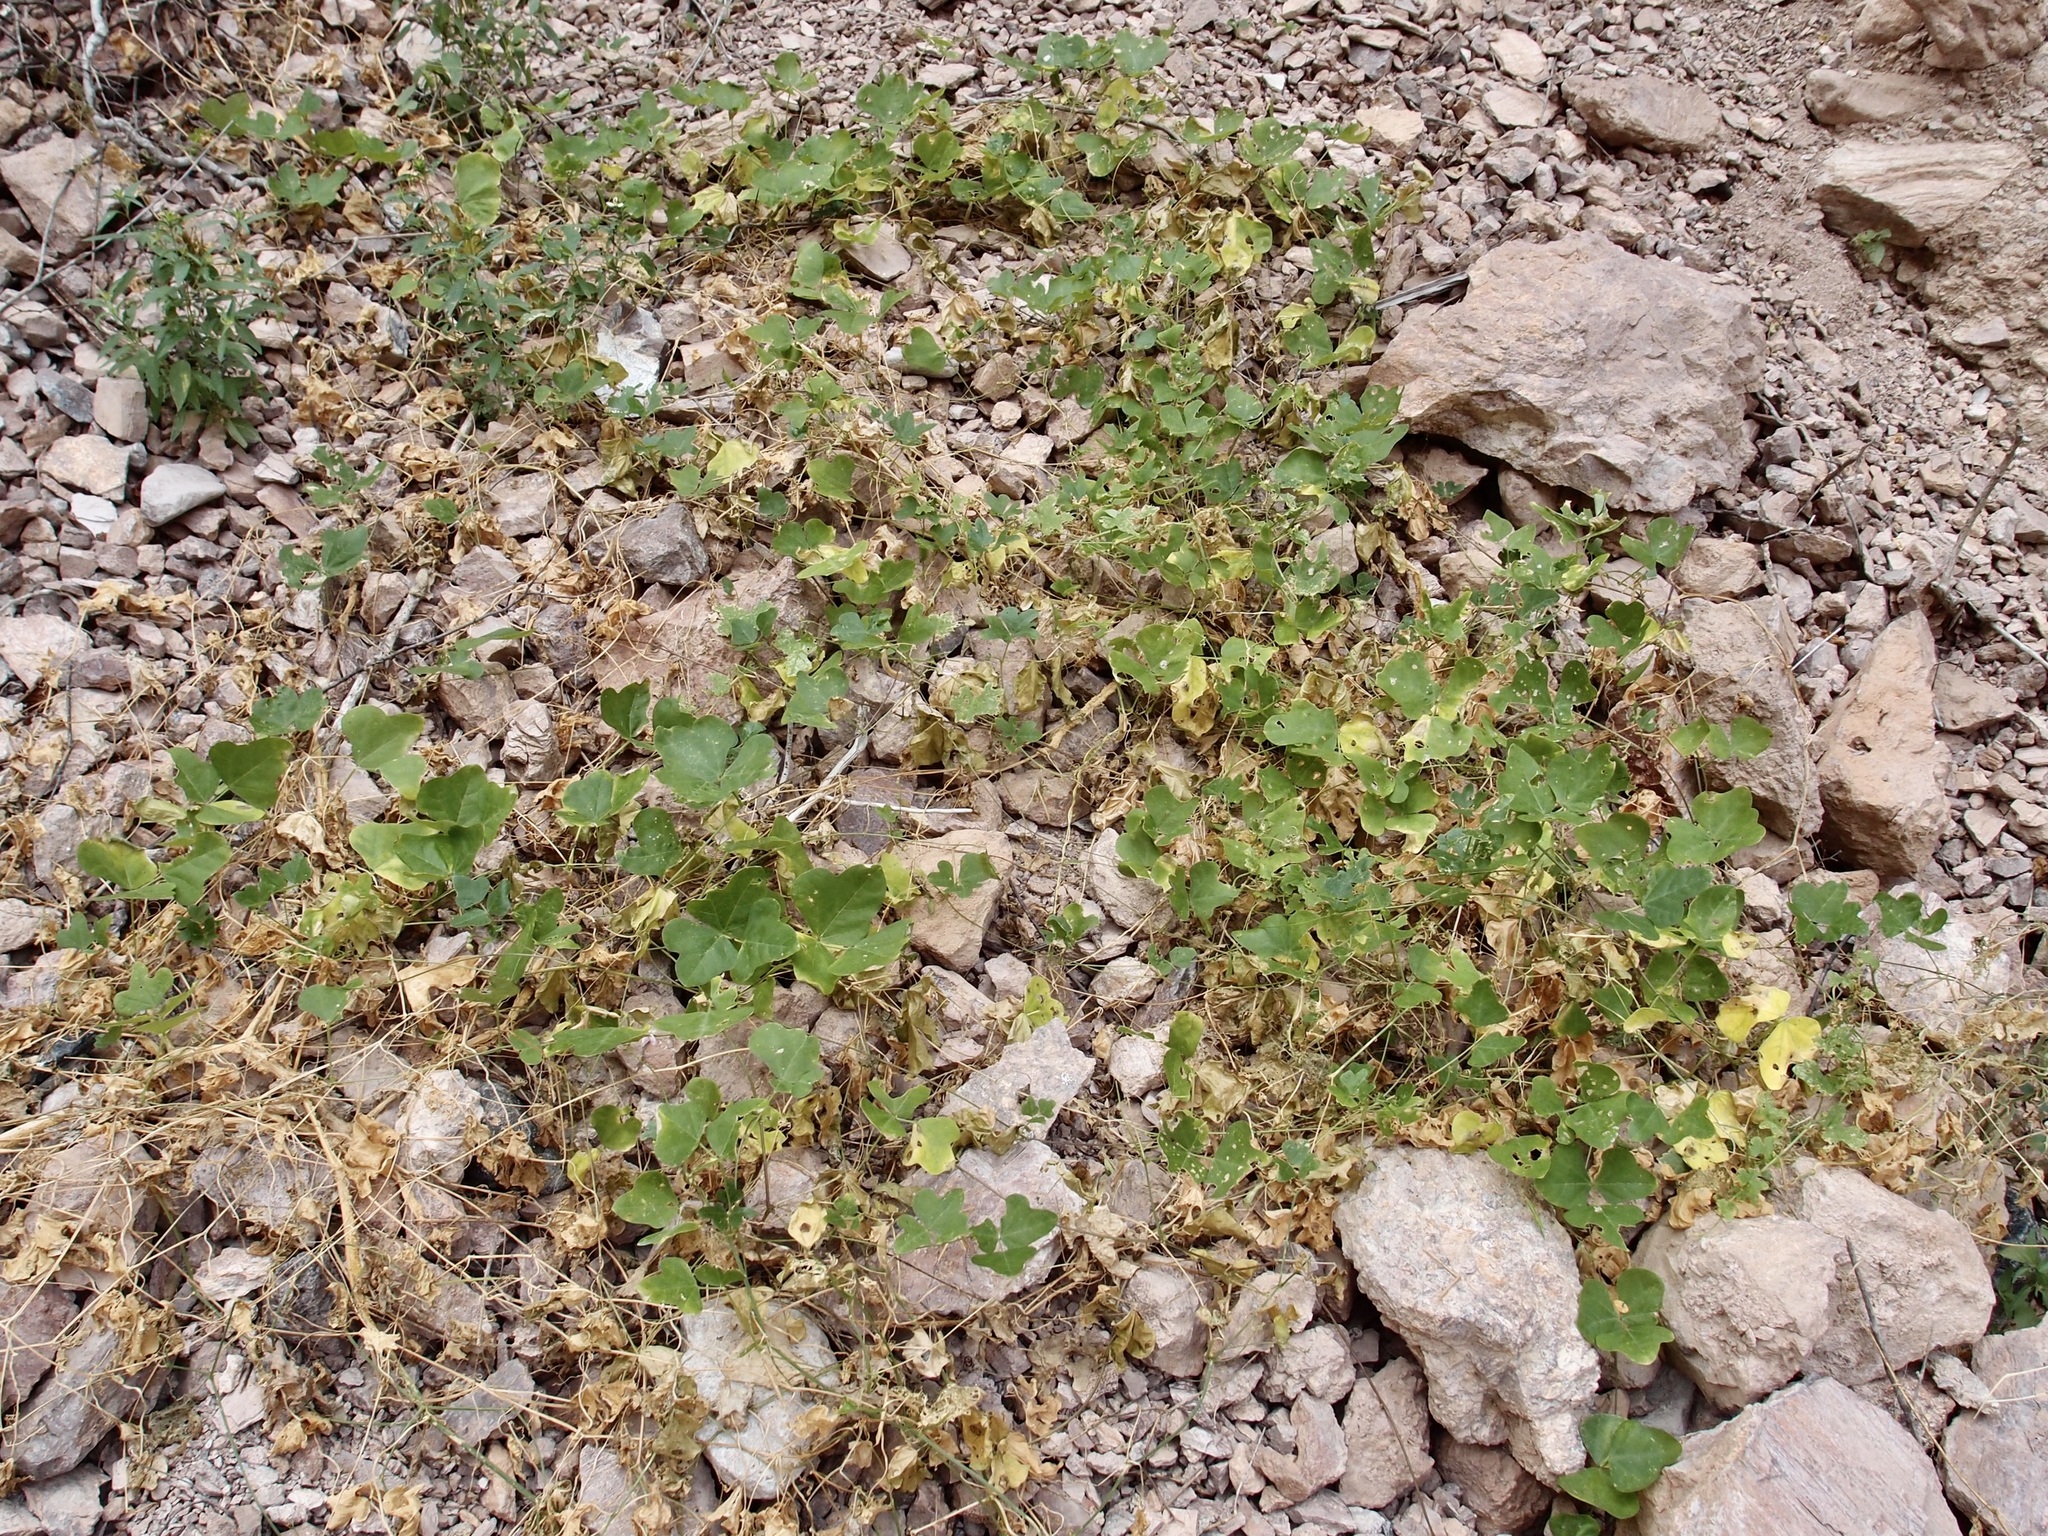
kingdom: Plantae
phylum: Tracheophyta
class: Magnoliopsida
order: Fabales
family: Fabaceae
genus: Phaseolus
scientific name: Phaseolus filiformis
